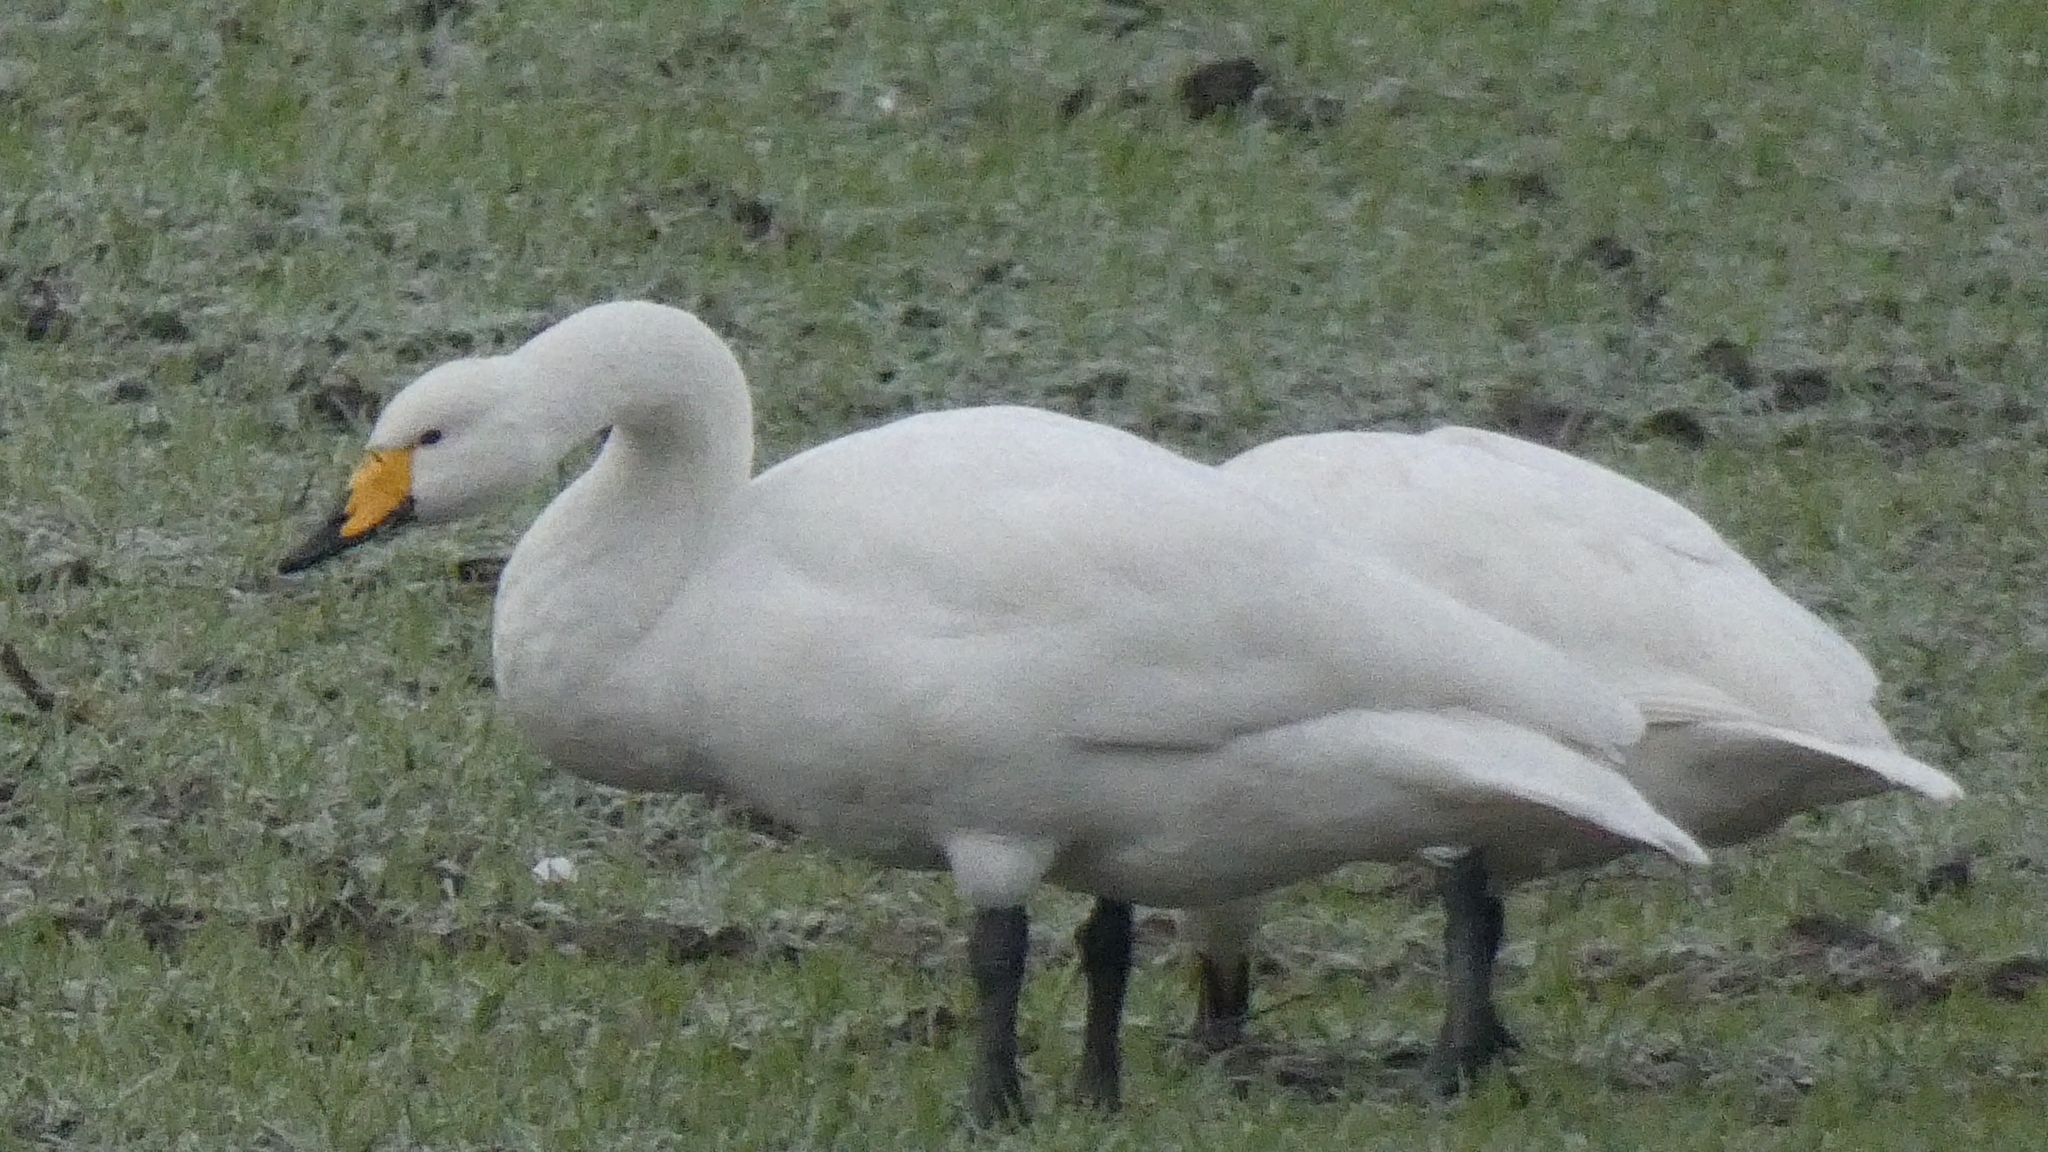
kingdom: Animalia
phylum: Chordata
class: Aves
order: Anseriformes
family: Anatidae
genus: Cygnus
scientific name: Cygnus cygnus
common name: Whooper swan
